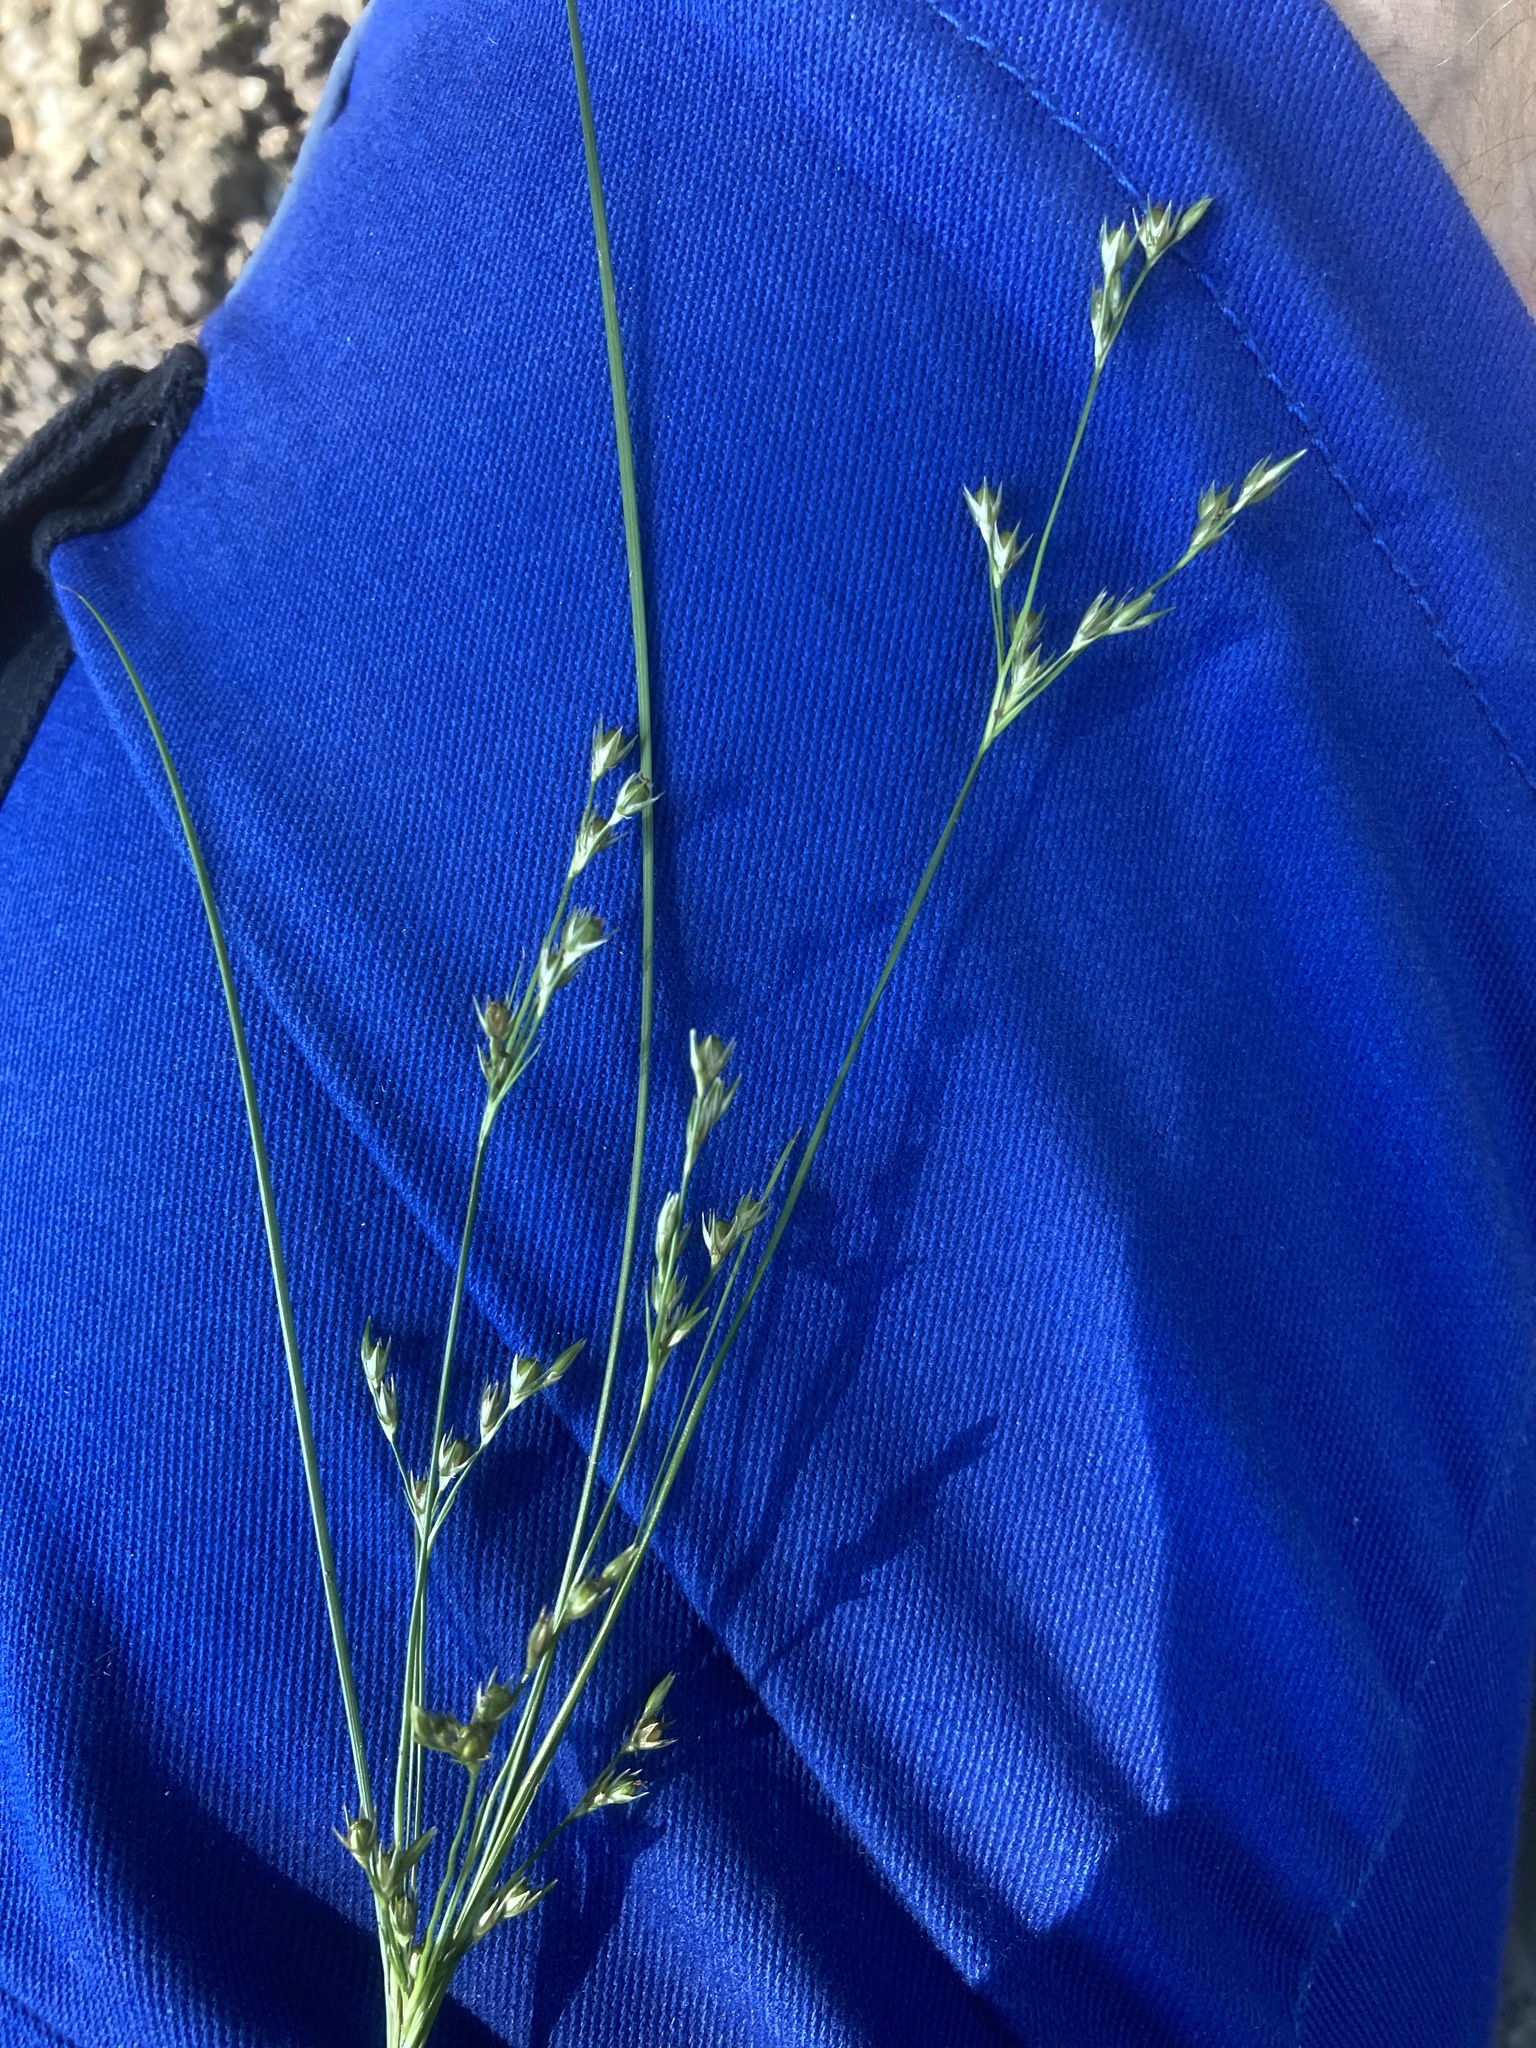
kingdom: Plantae
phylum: Tracheophyta
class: Liliopsida
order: Poales
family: Juncaceae
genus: Juncus
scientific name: Juncus tenuis
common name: Slender rush
